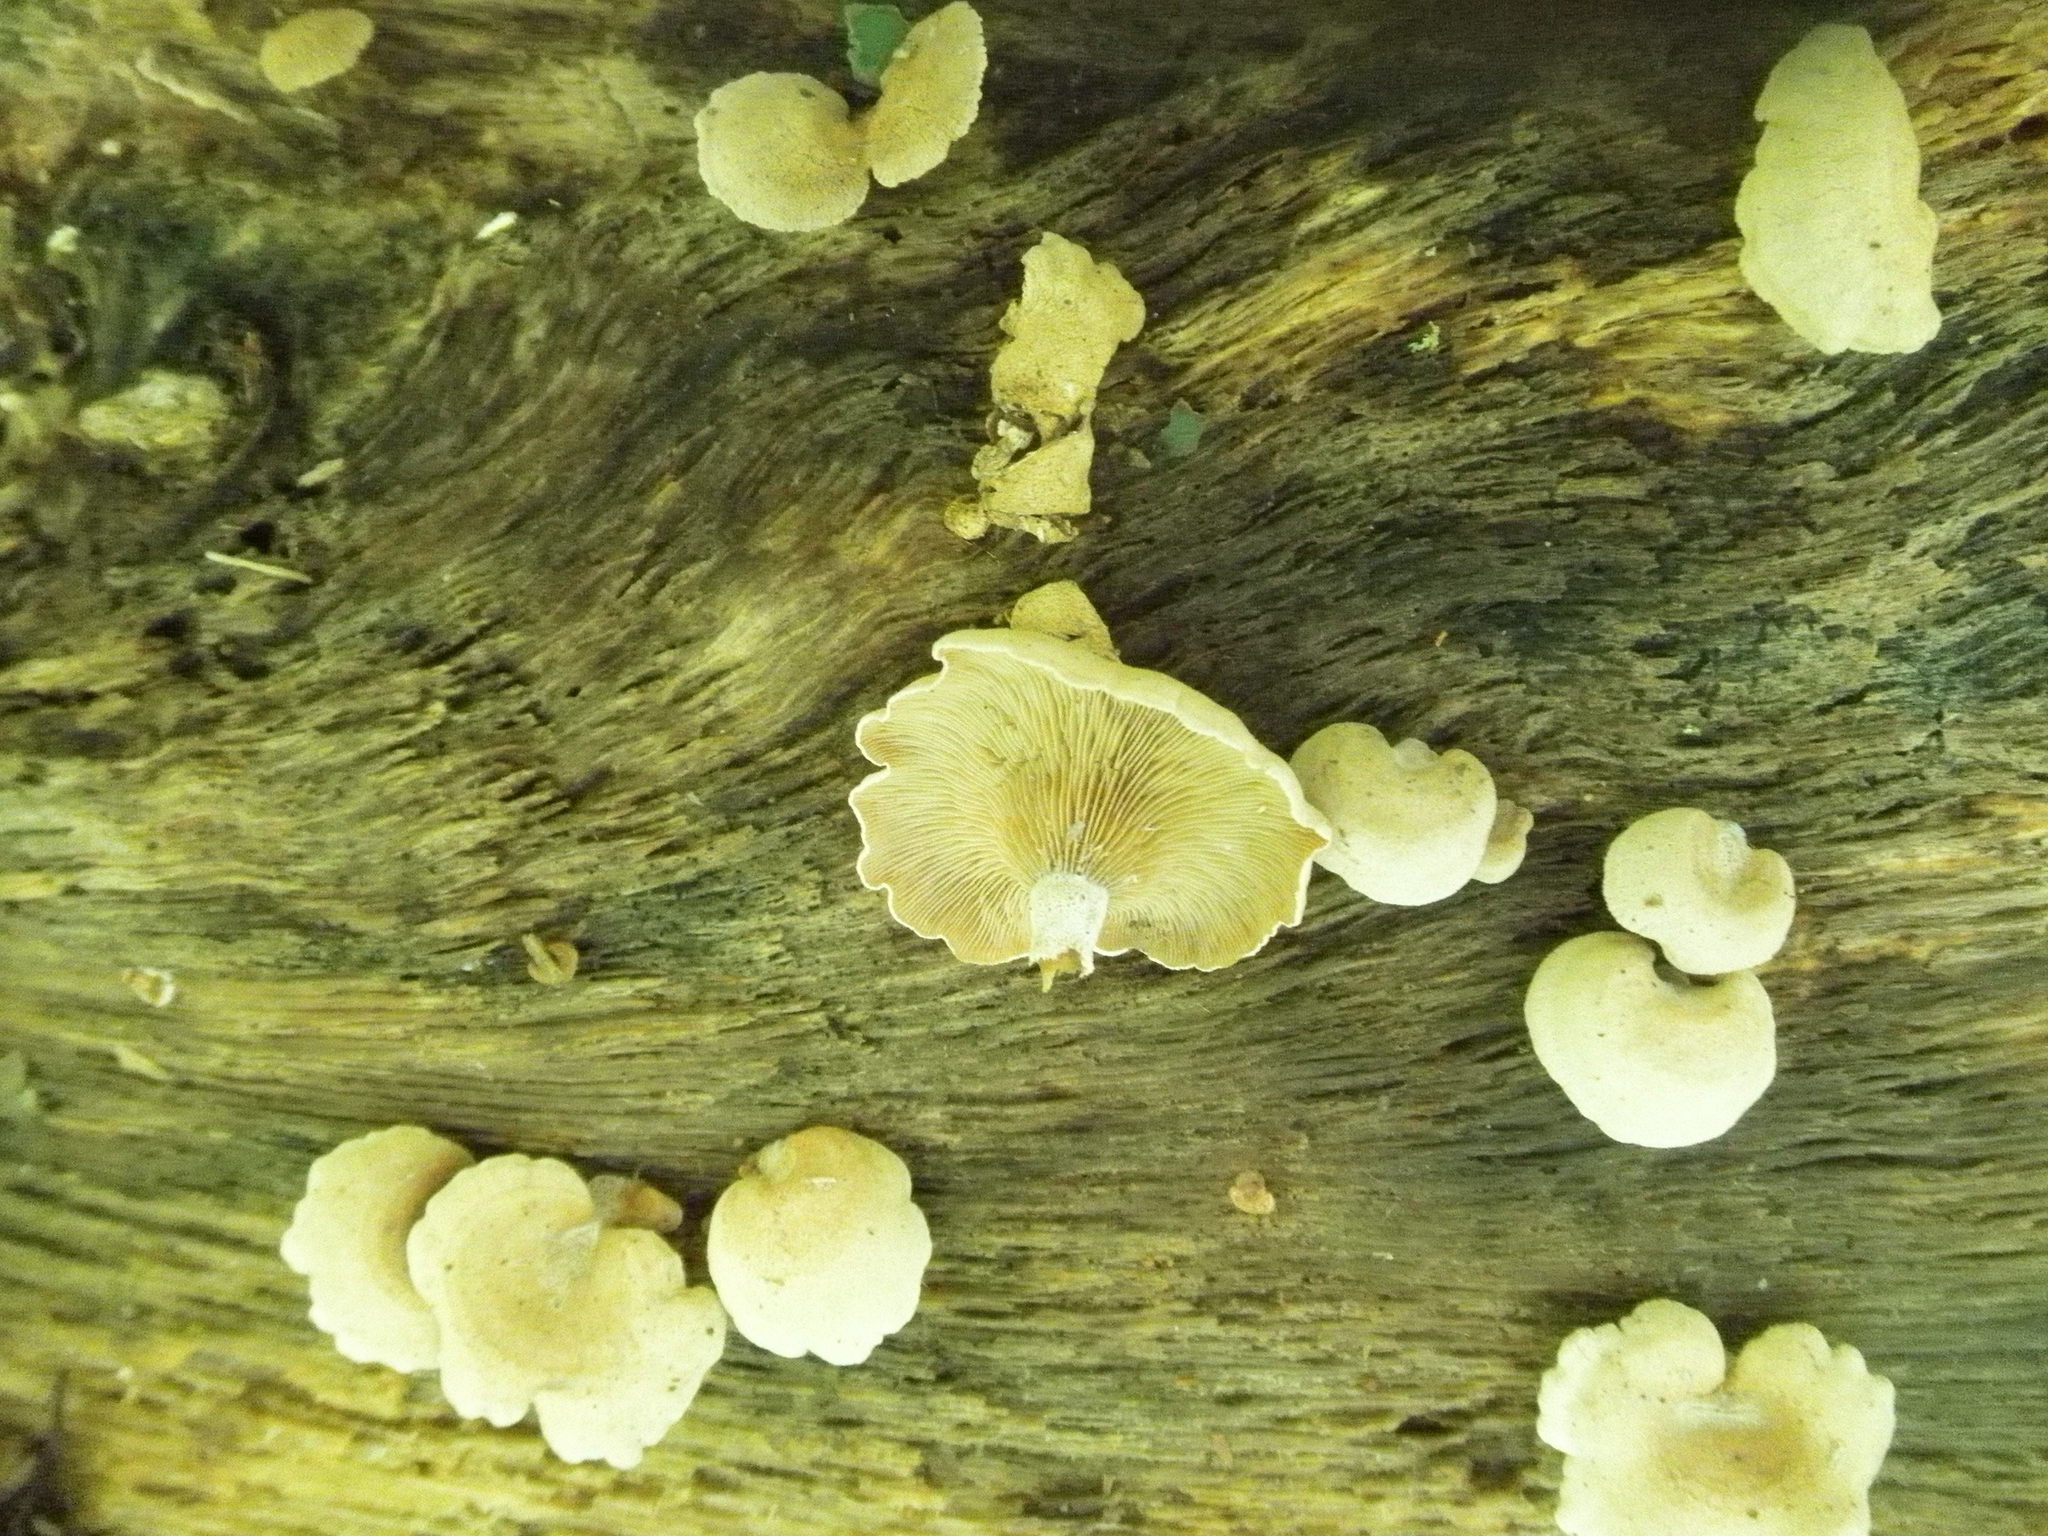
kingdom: Fungi
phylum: Basidiomycota
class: Agaricomycetes
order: Agaricales
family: Mycenaceae
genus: Panellus
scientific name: Panellus stipticus
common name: Bitter oysterling
